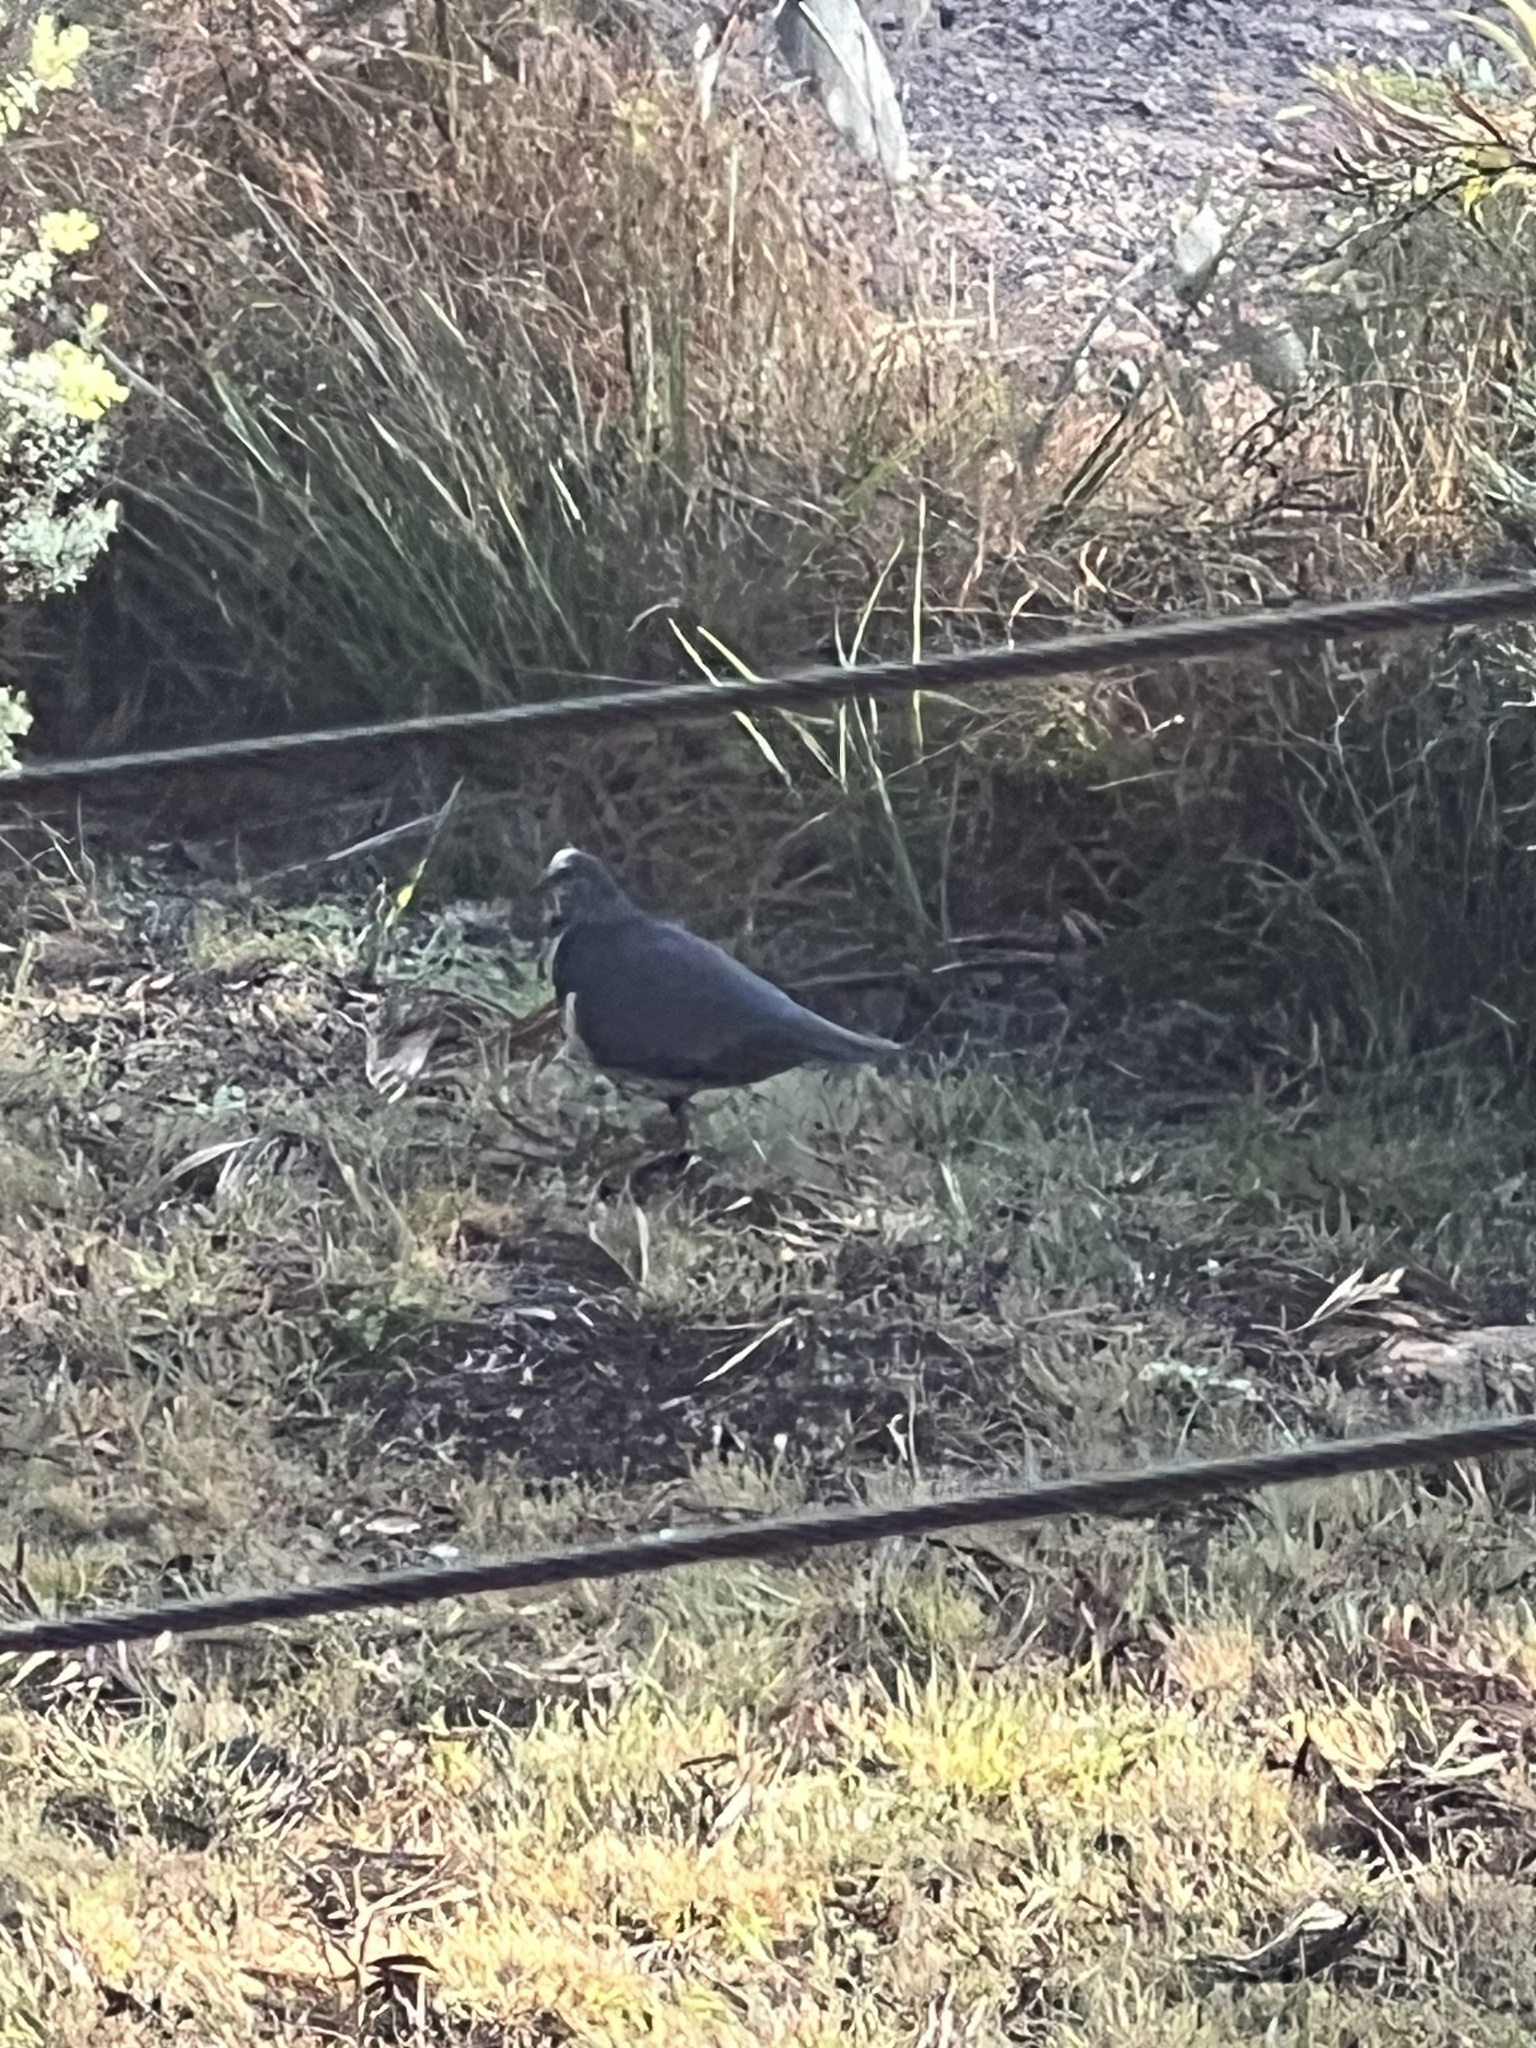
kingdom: Animalia
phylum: Chordata
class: Aves
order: Columbiformes
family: Columbidae
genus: Leucosarcia
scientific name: Leucosarcia melanoleuca
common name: Wonga pigeon
